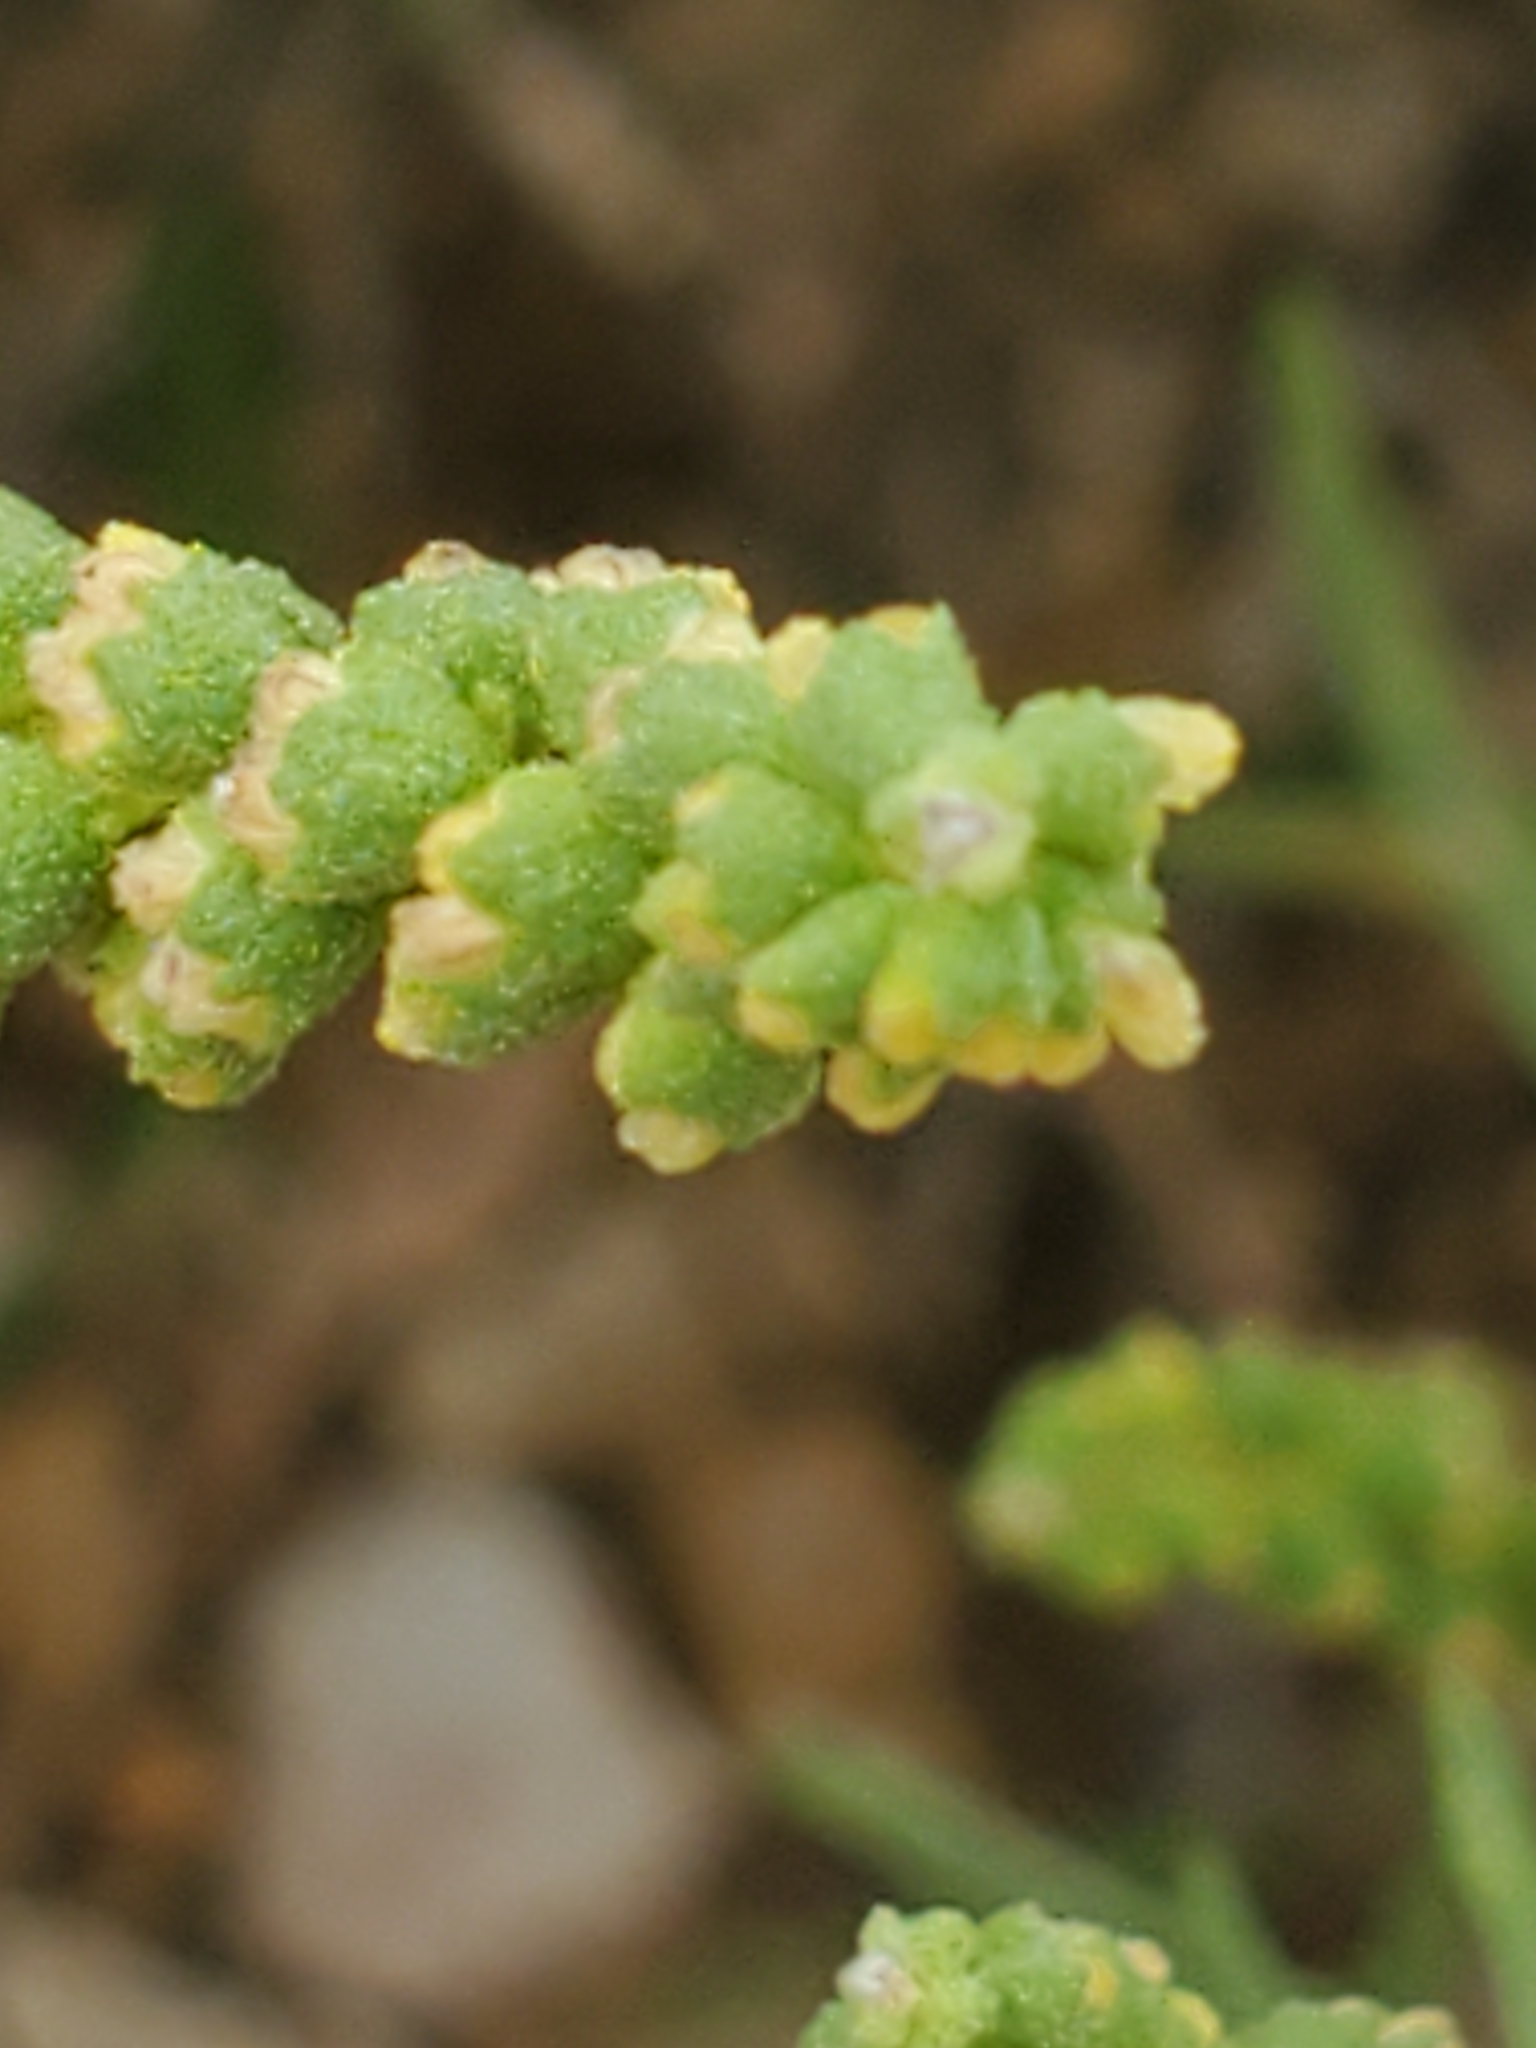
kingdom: Plantae
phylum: Tracheophyta
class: Magnoliopsida
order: Asterales
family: Asteraceae
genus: Ambrosia
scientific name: Ambrosia psilostachya
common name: Perennial ragweed
